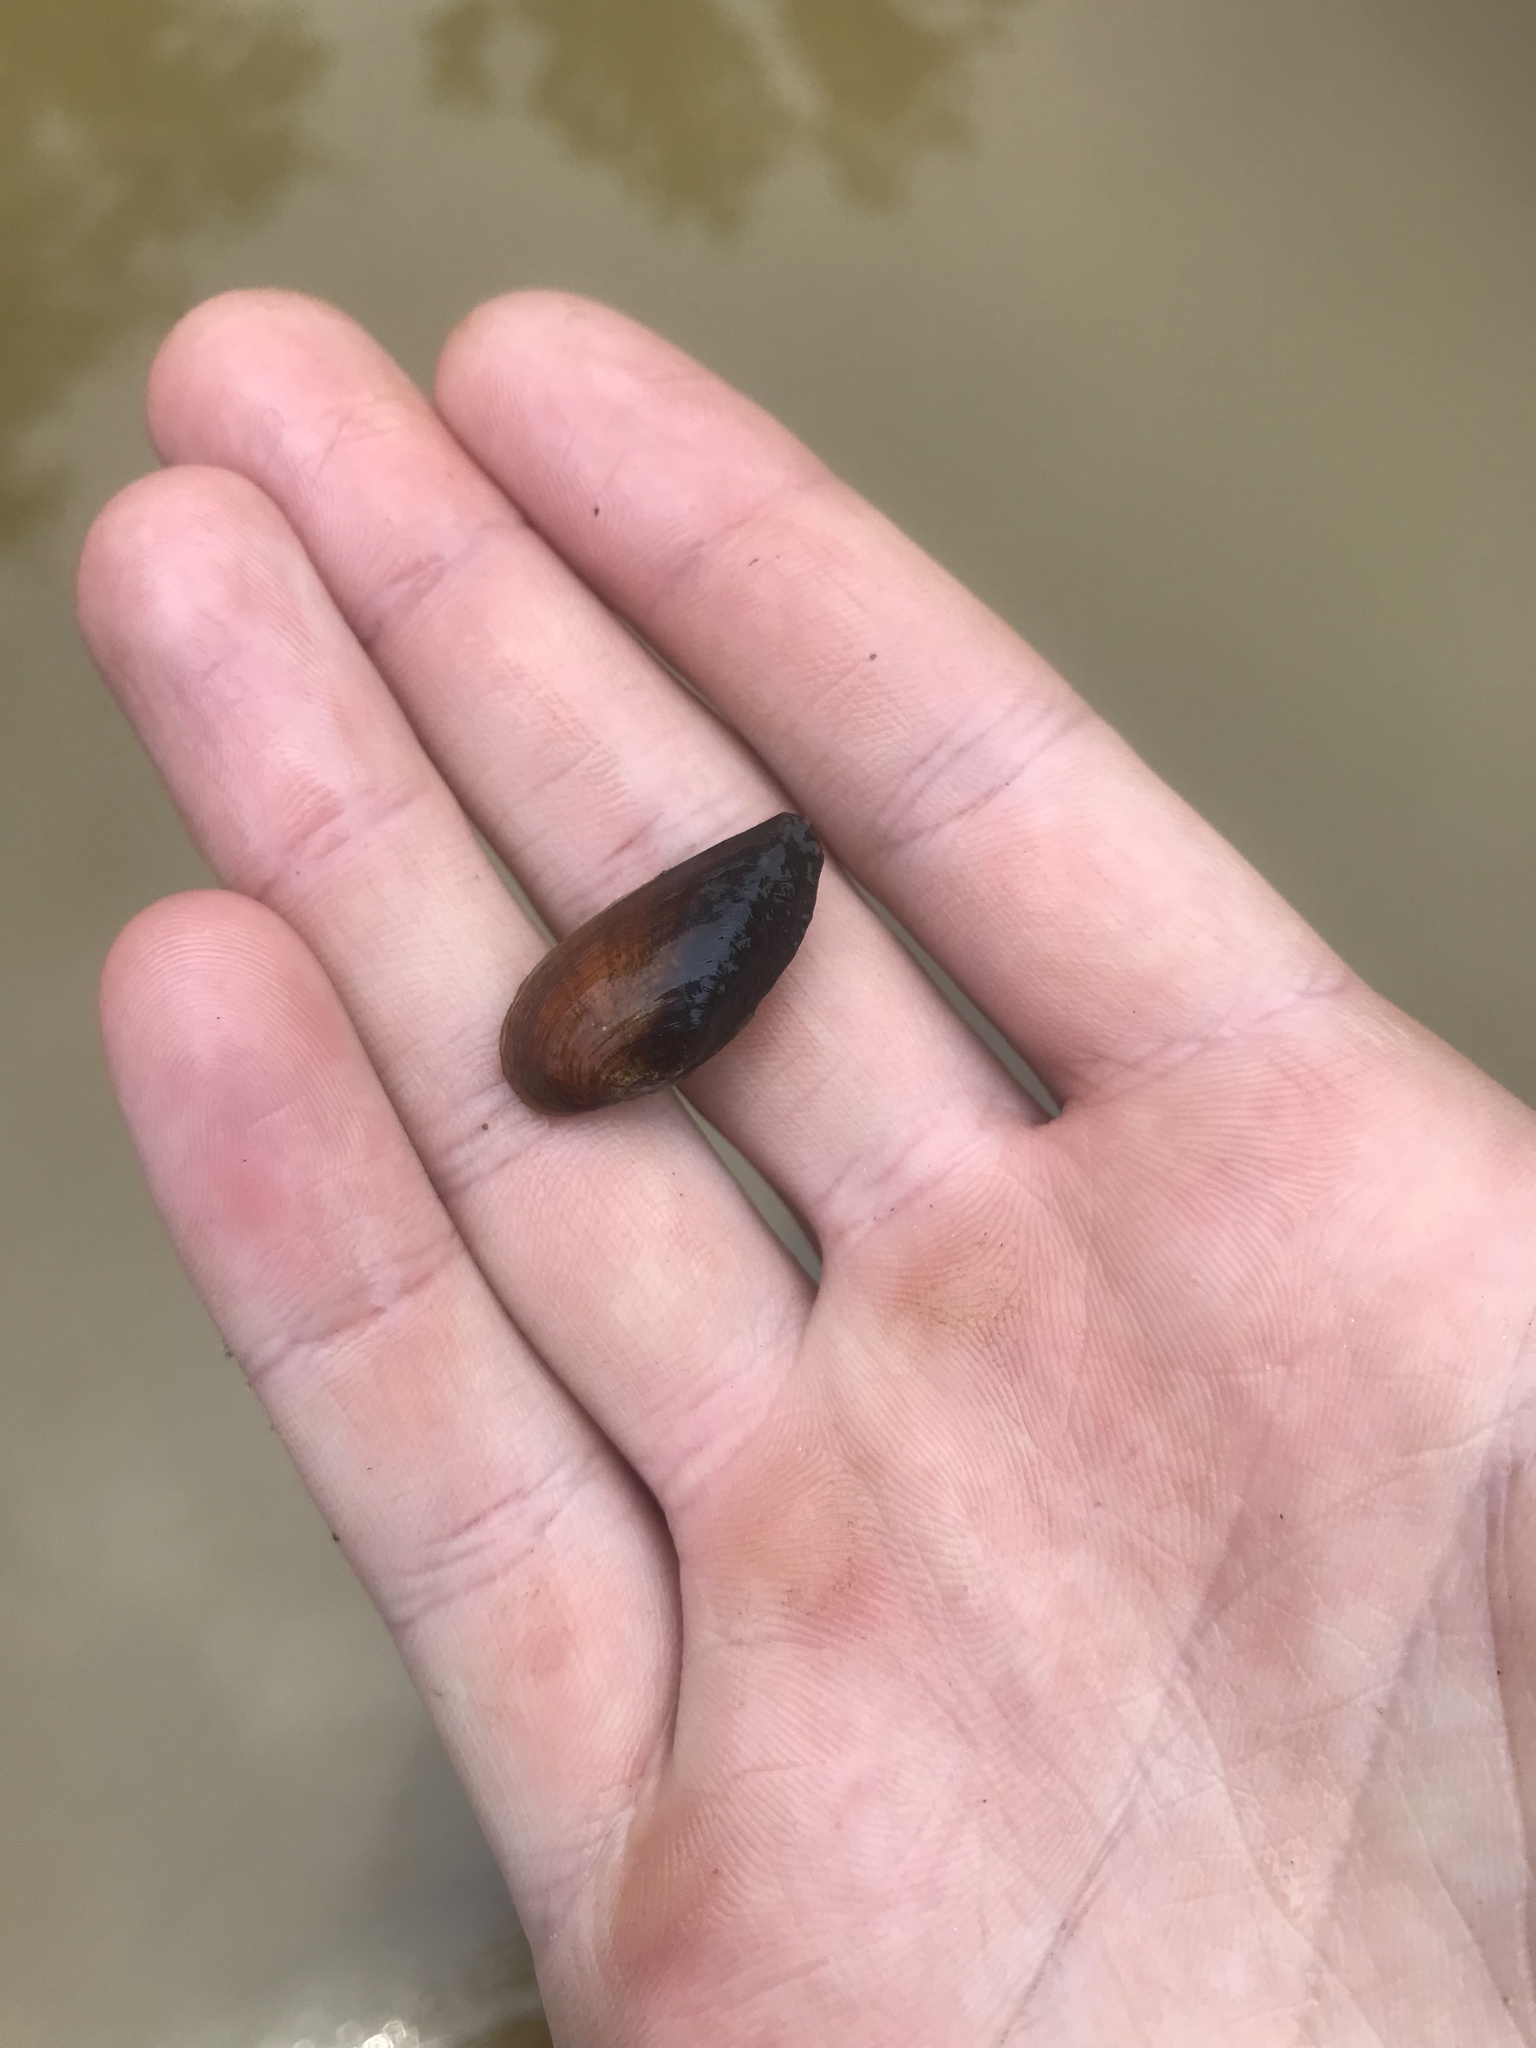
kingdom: Animalia
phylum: Mollusca
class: Bivalvia
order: Unionida
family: Unionidae
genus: Medionidus
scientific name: Medionidus acutissimus
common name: Alabama moccasinshell
